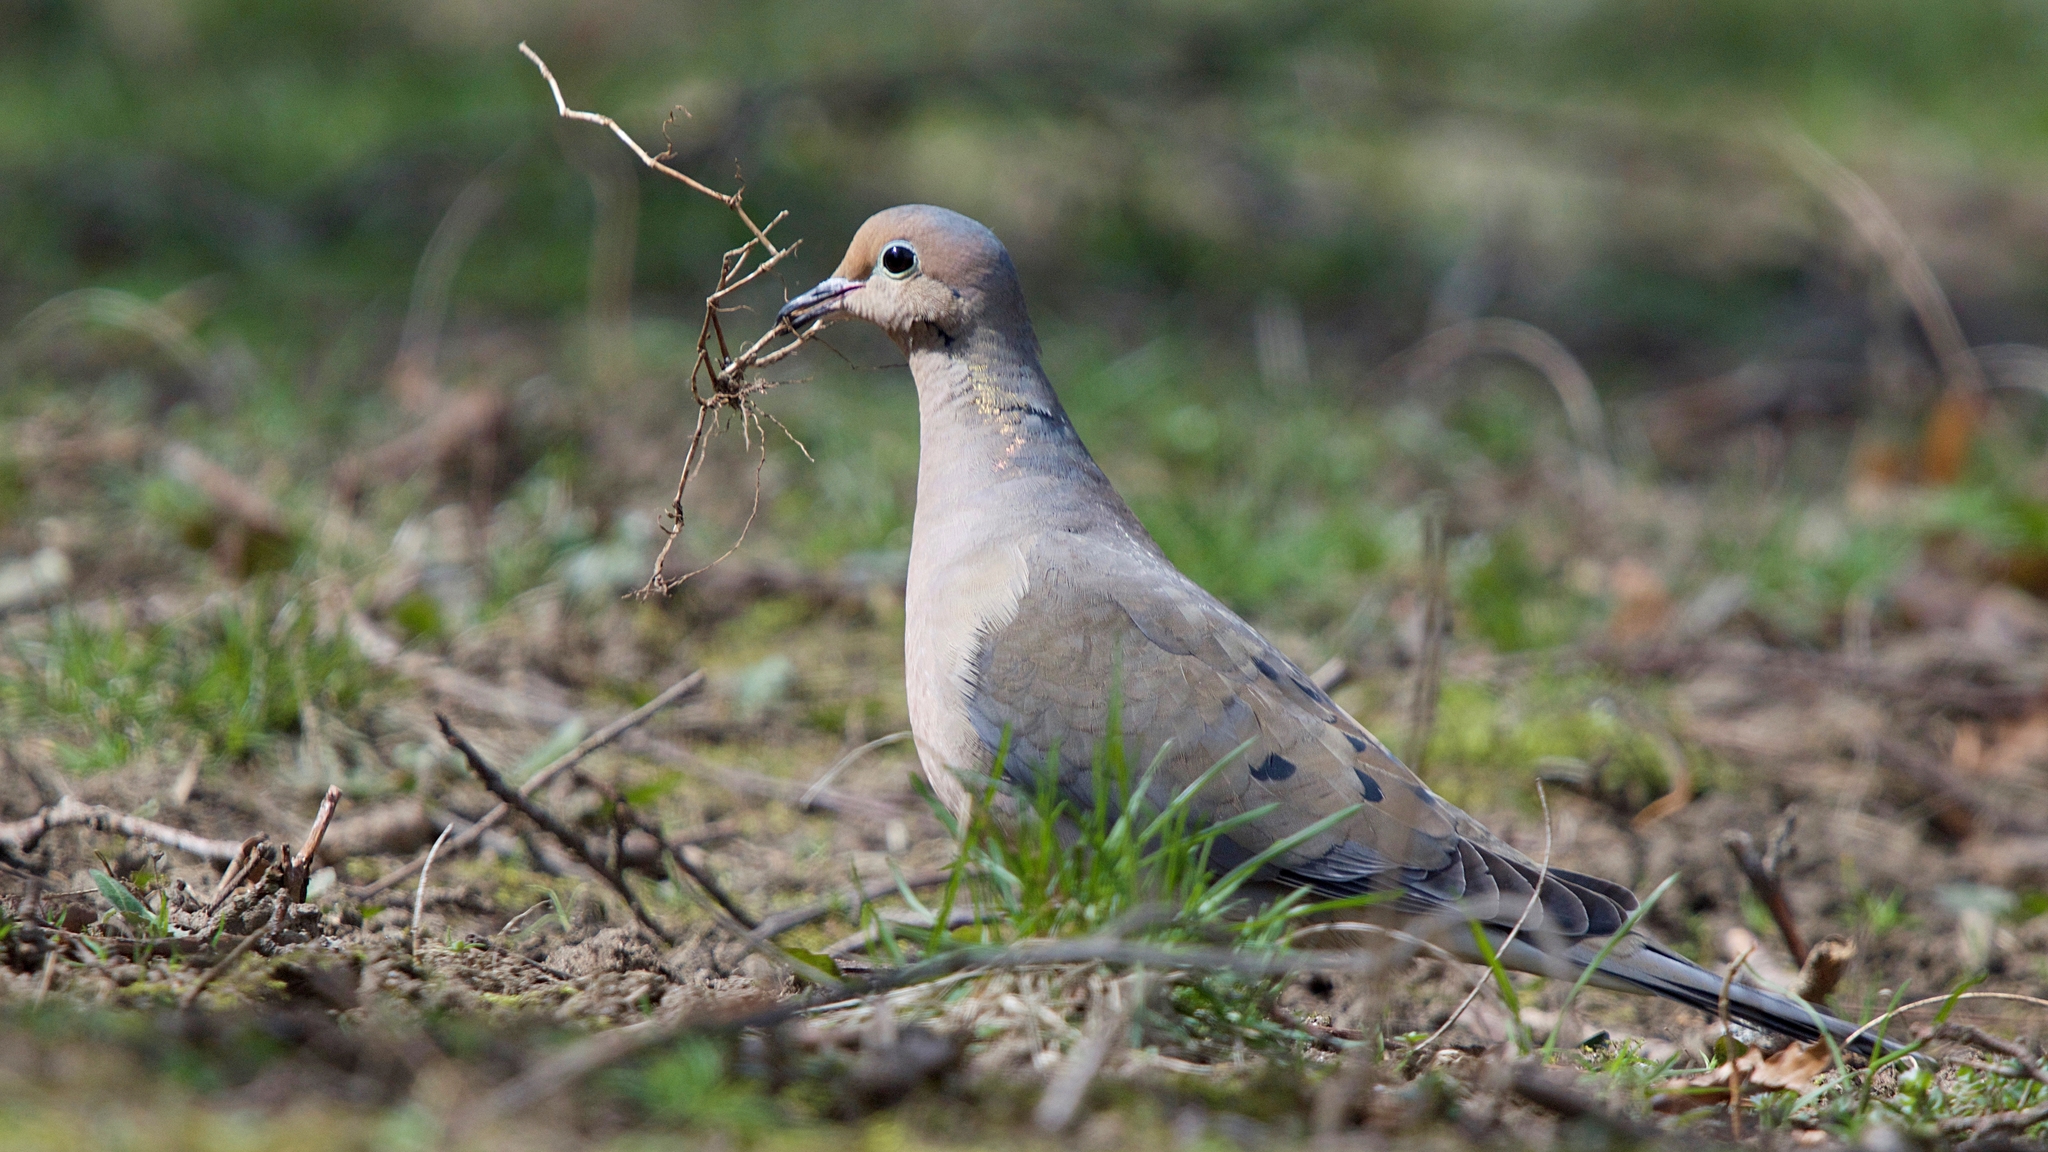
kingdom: Animalia
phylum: Chordata
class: Aves
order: Columbiformes
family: Columbidae
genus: Zenaida
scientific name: Zenaida macroura
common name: Mourning dove
